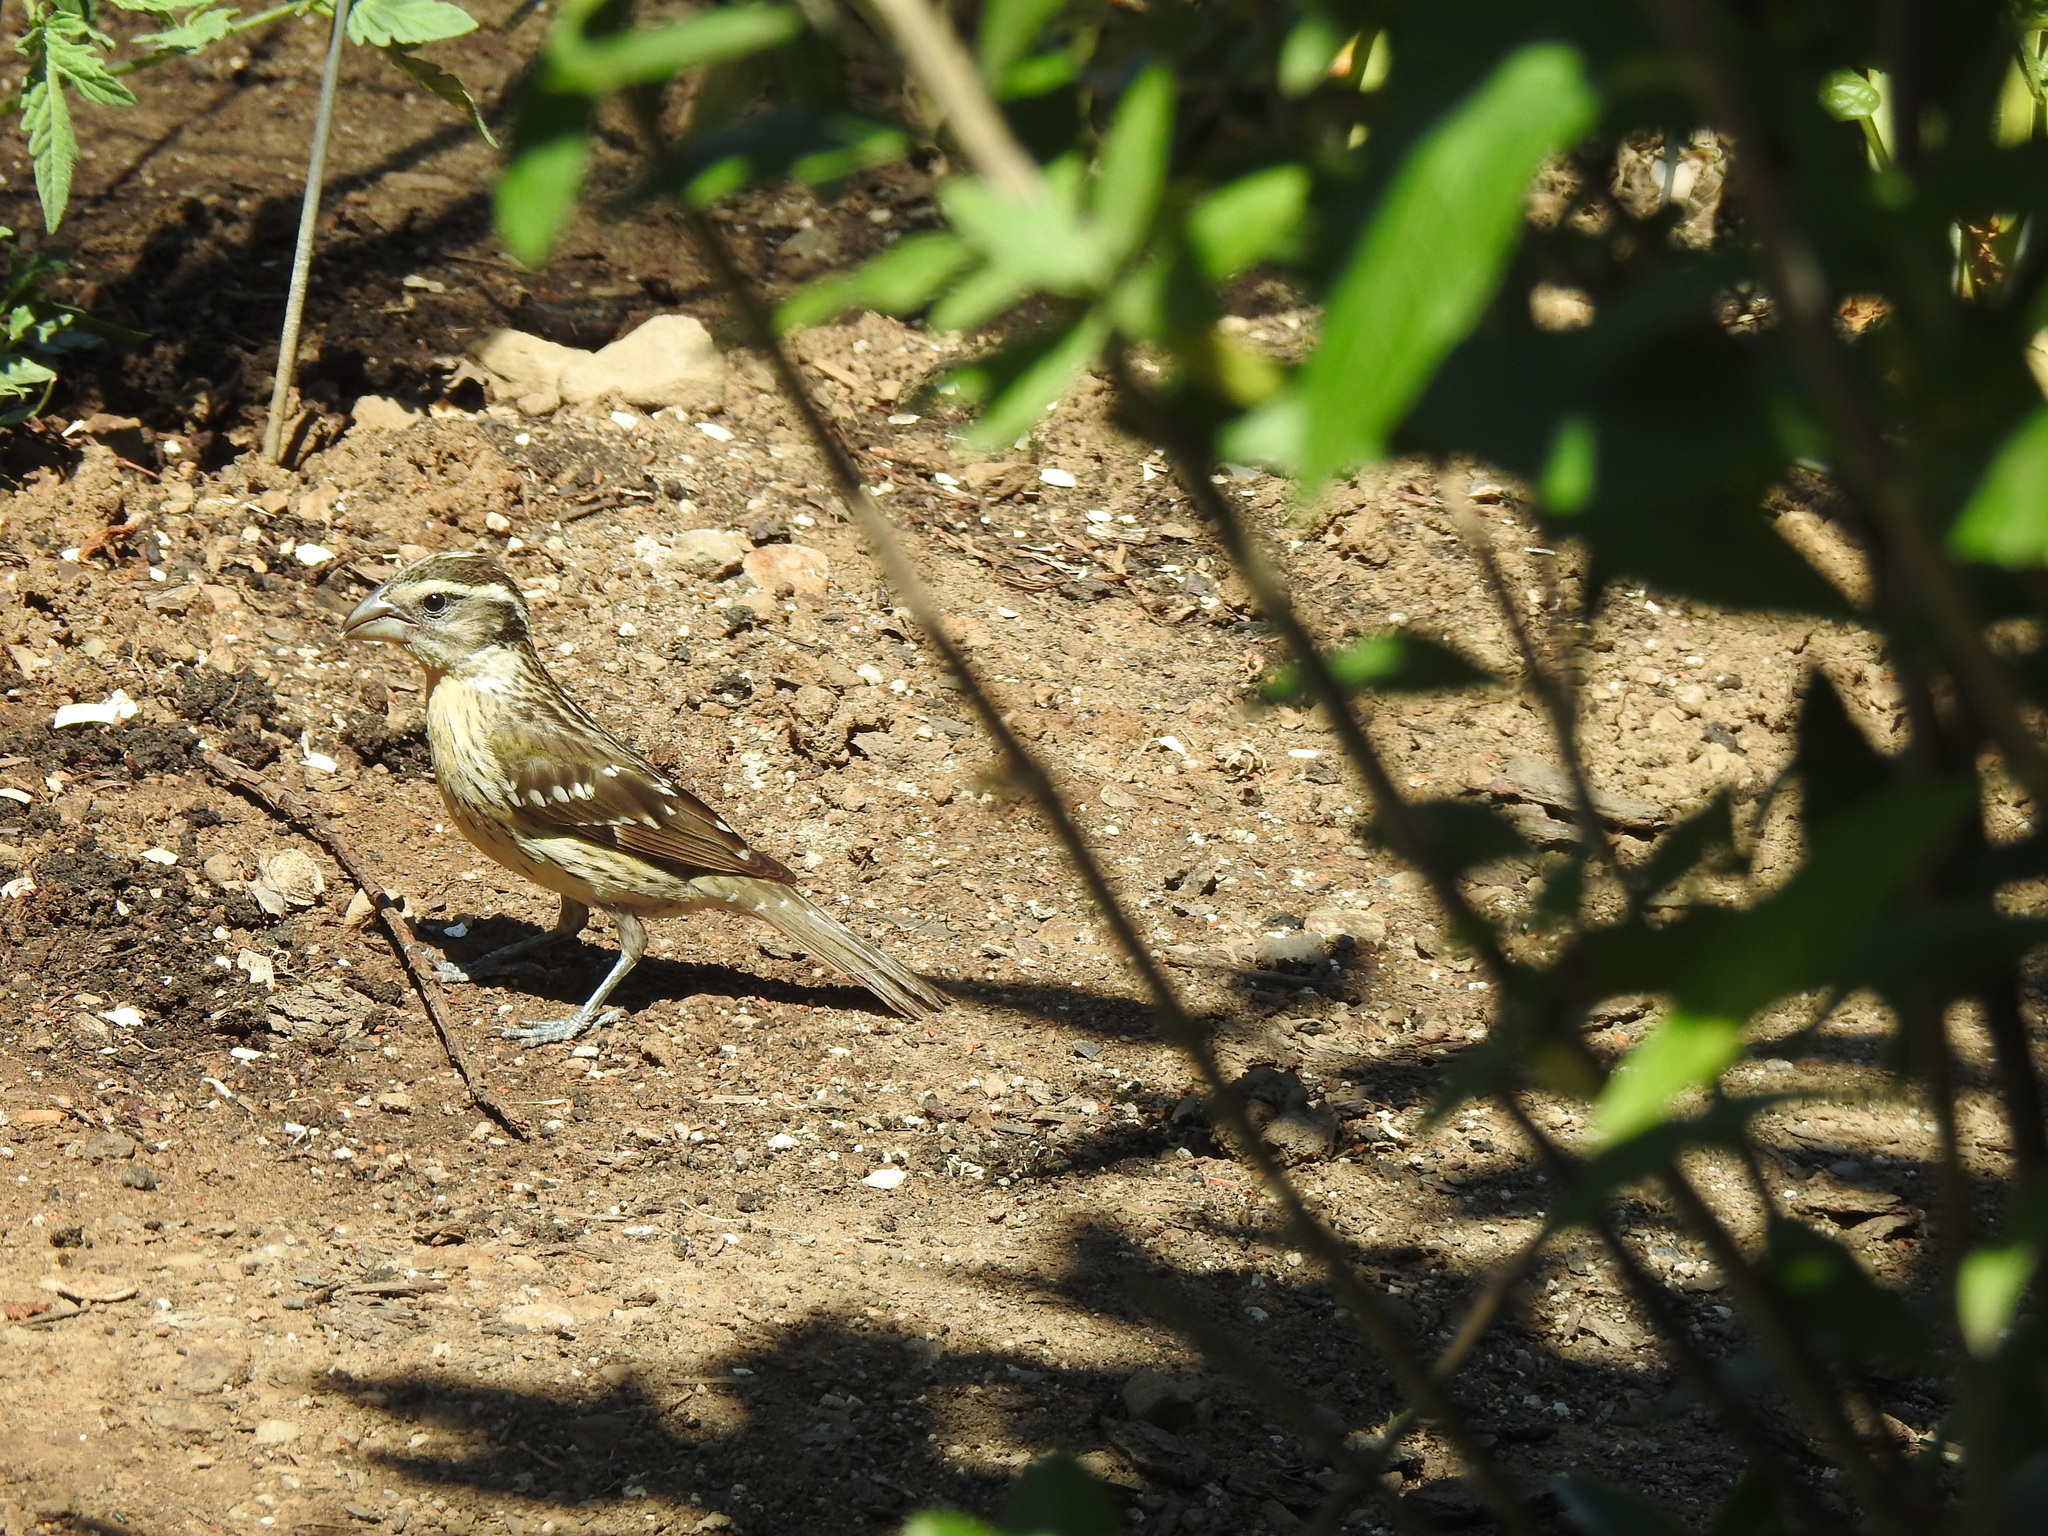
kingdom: Animalia
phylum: Chordata
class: Aves
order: Passeriformes
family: Cardinalidae
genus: Pheucticus
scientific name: Pheucticus melanocephalus
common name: Black-headed grosbeak
